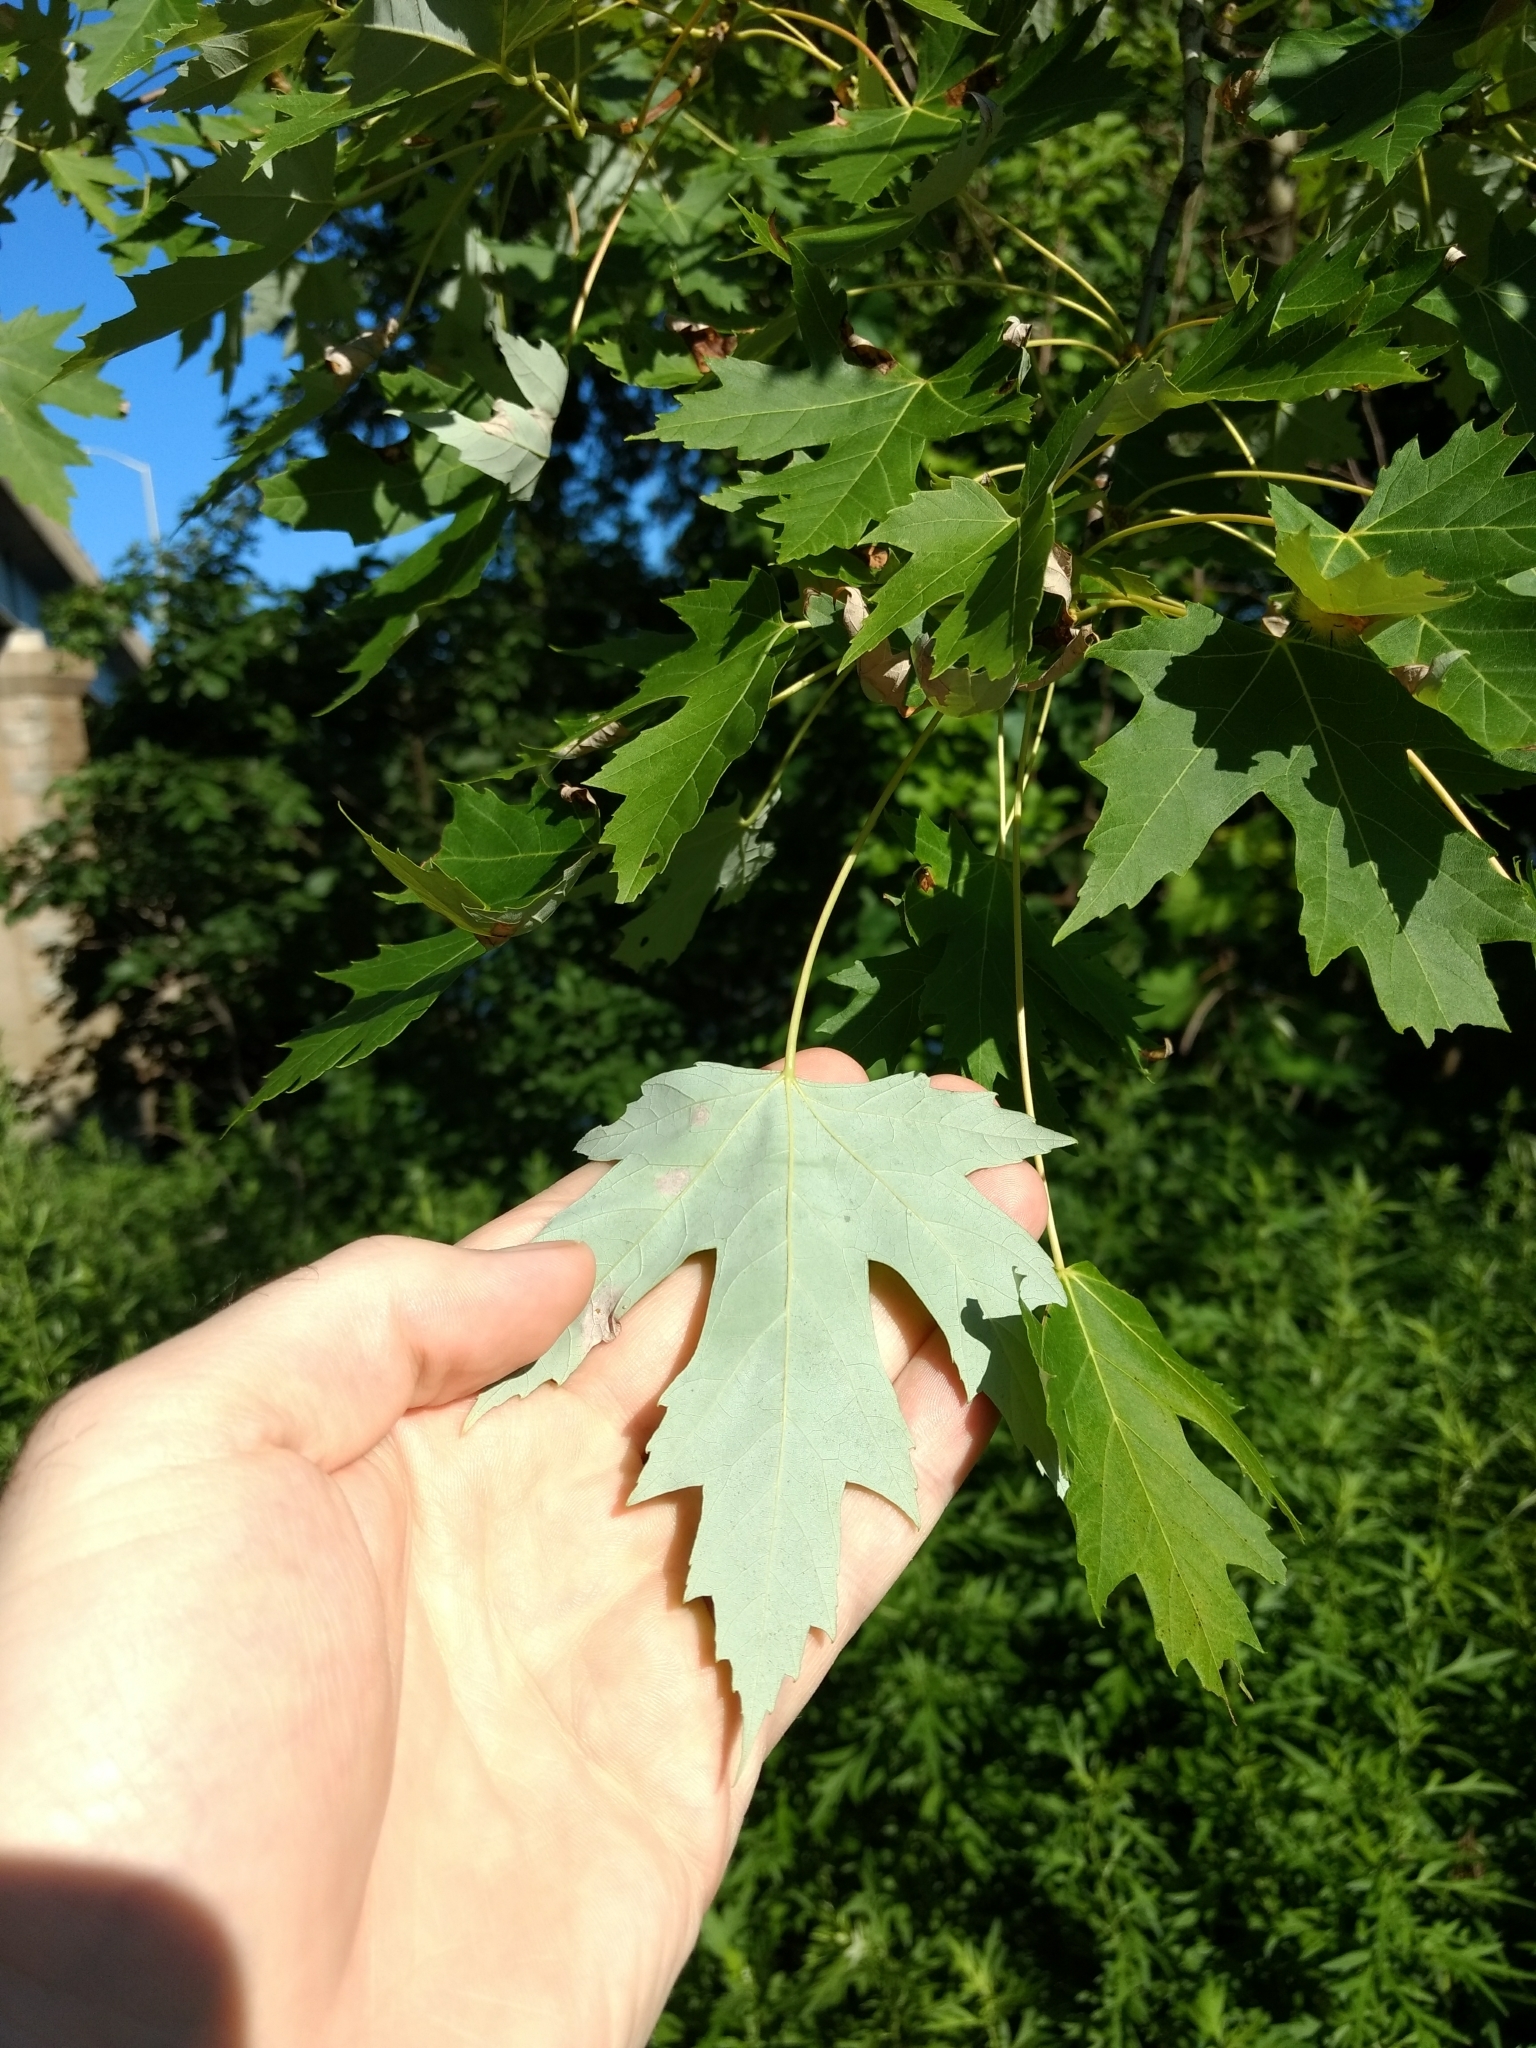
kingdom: Plantae
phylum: Tracheophyta
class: Magnoliopsida
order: Sapindales
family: Sapindaceae
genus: Acer
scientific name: Acer saccharinum
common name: Silver maple
